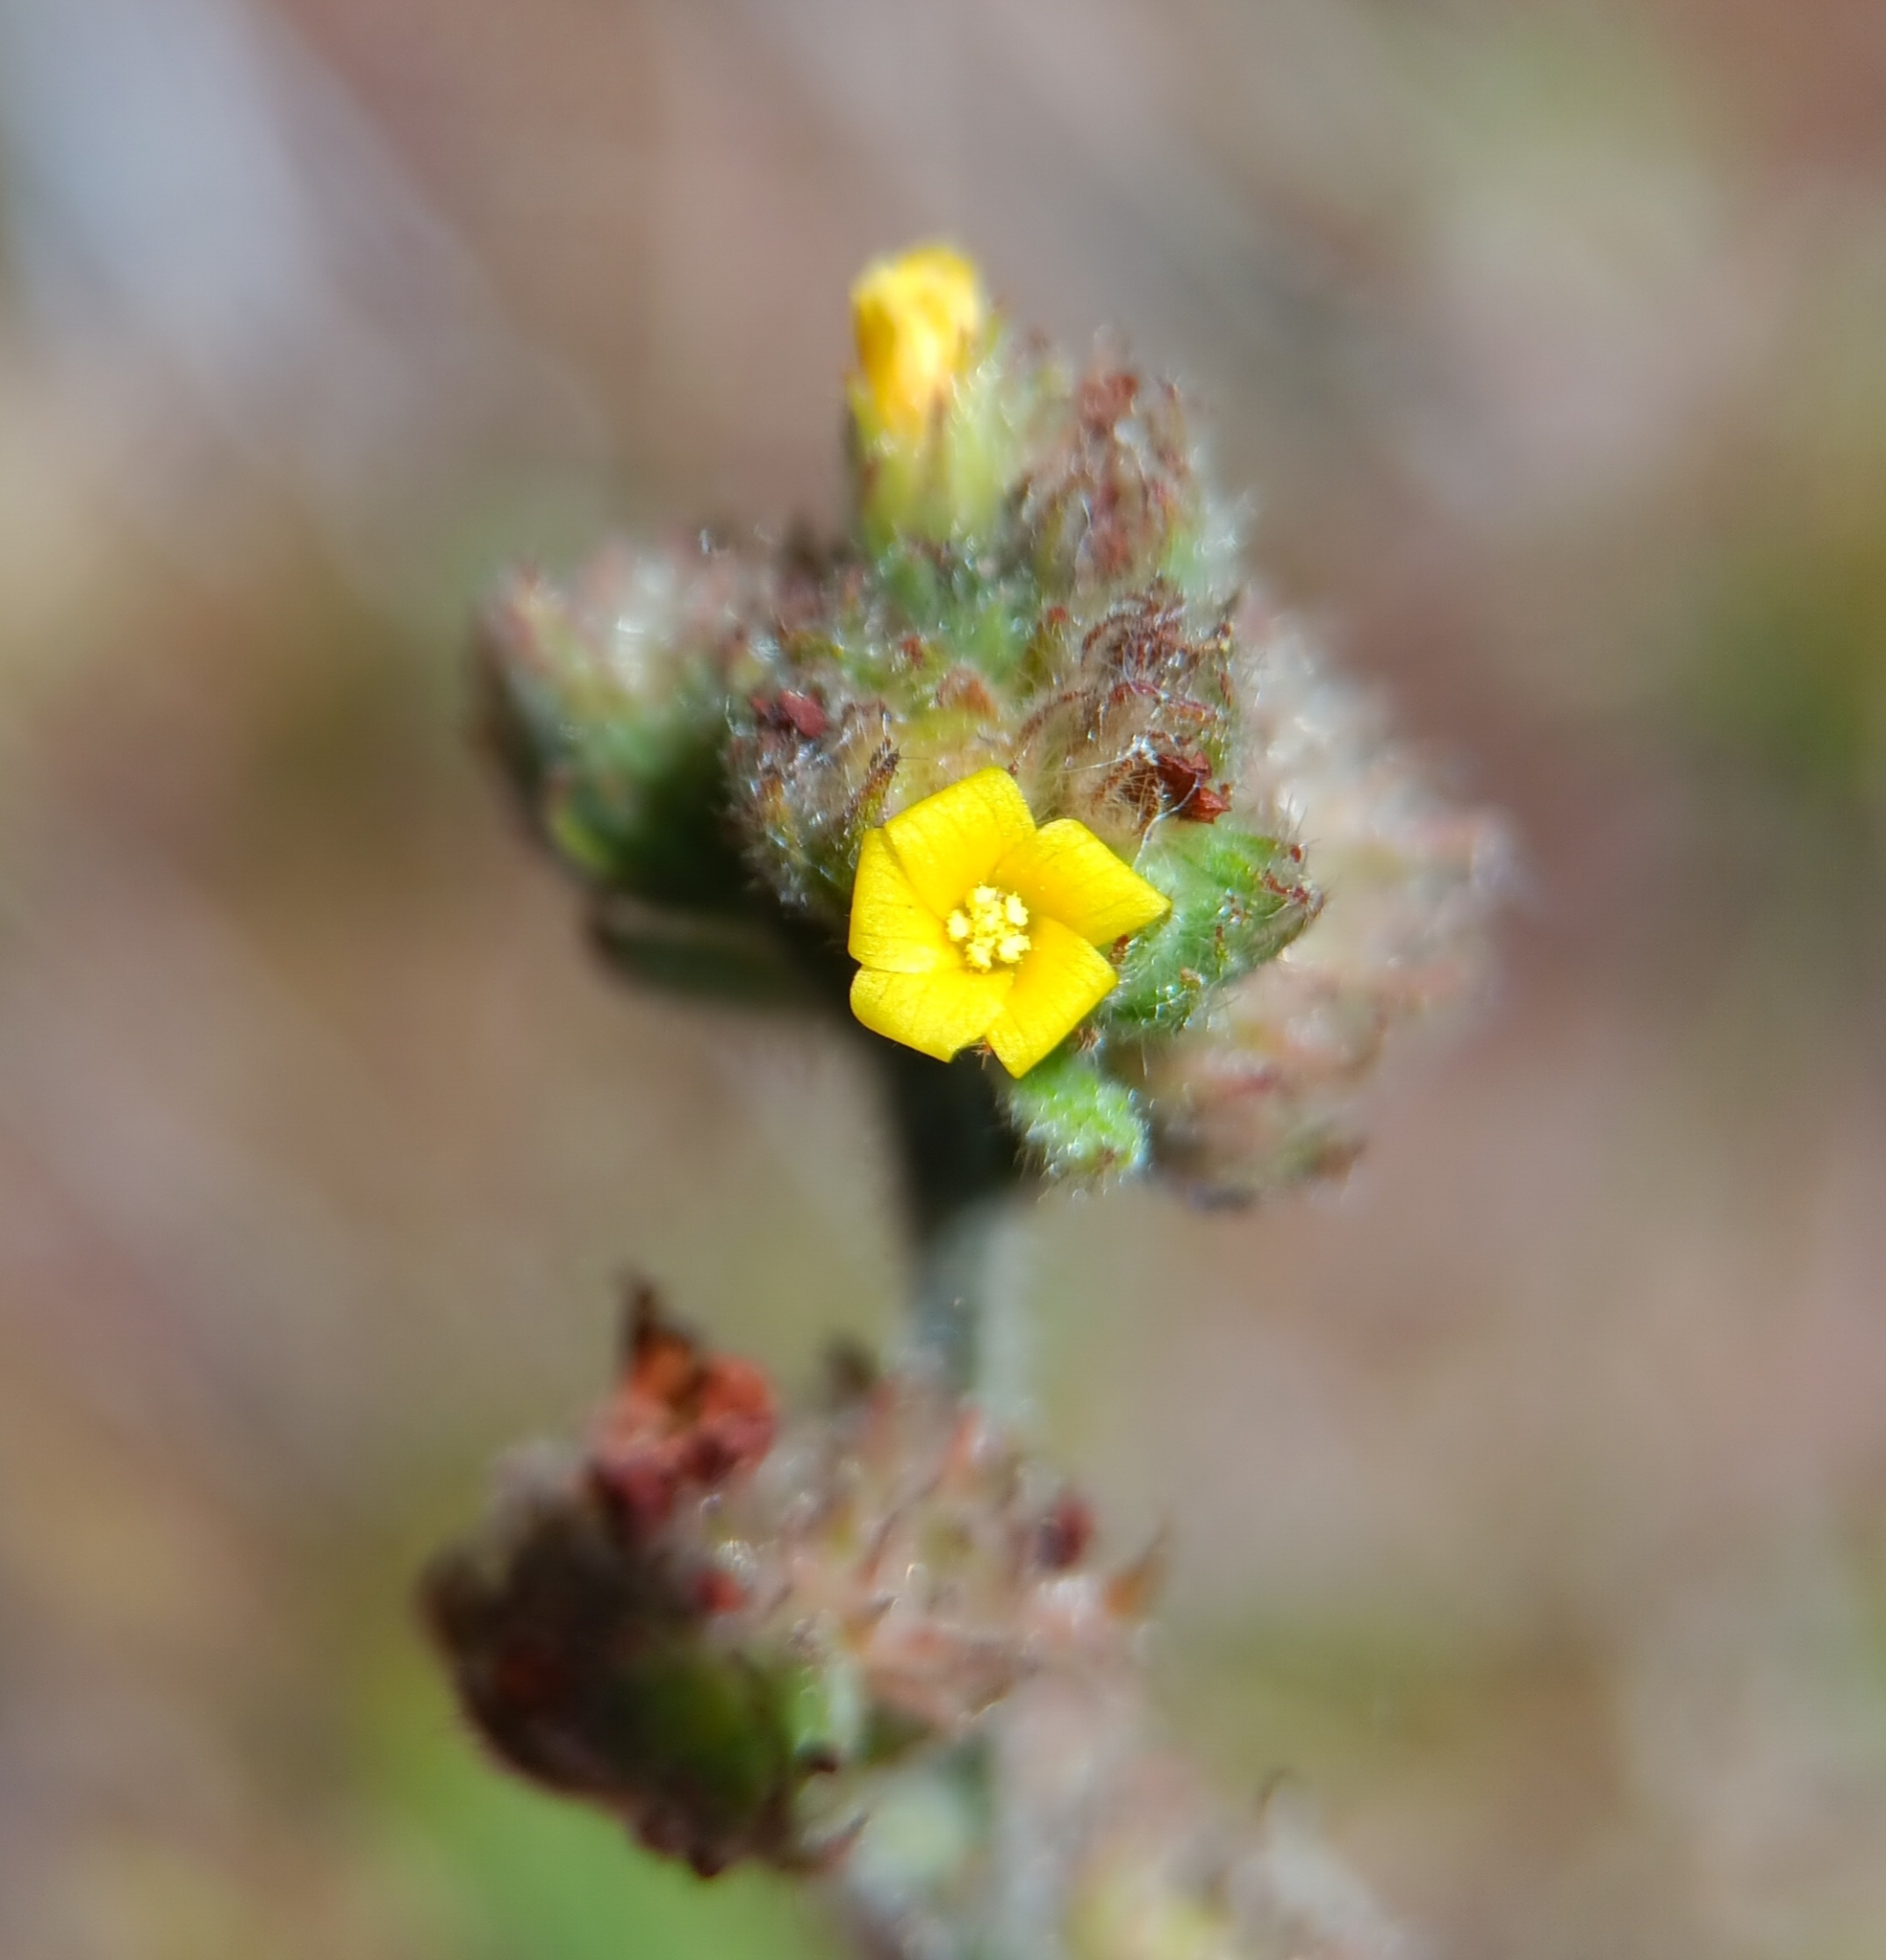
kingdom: Plantae
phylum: Tracheophyta
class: Magnoliopsida
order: Malvales
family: Malvaceae
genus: Waltheria
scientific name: Waltheria indica
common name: Leather-coat
